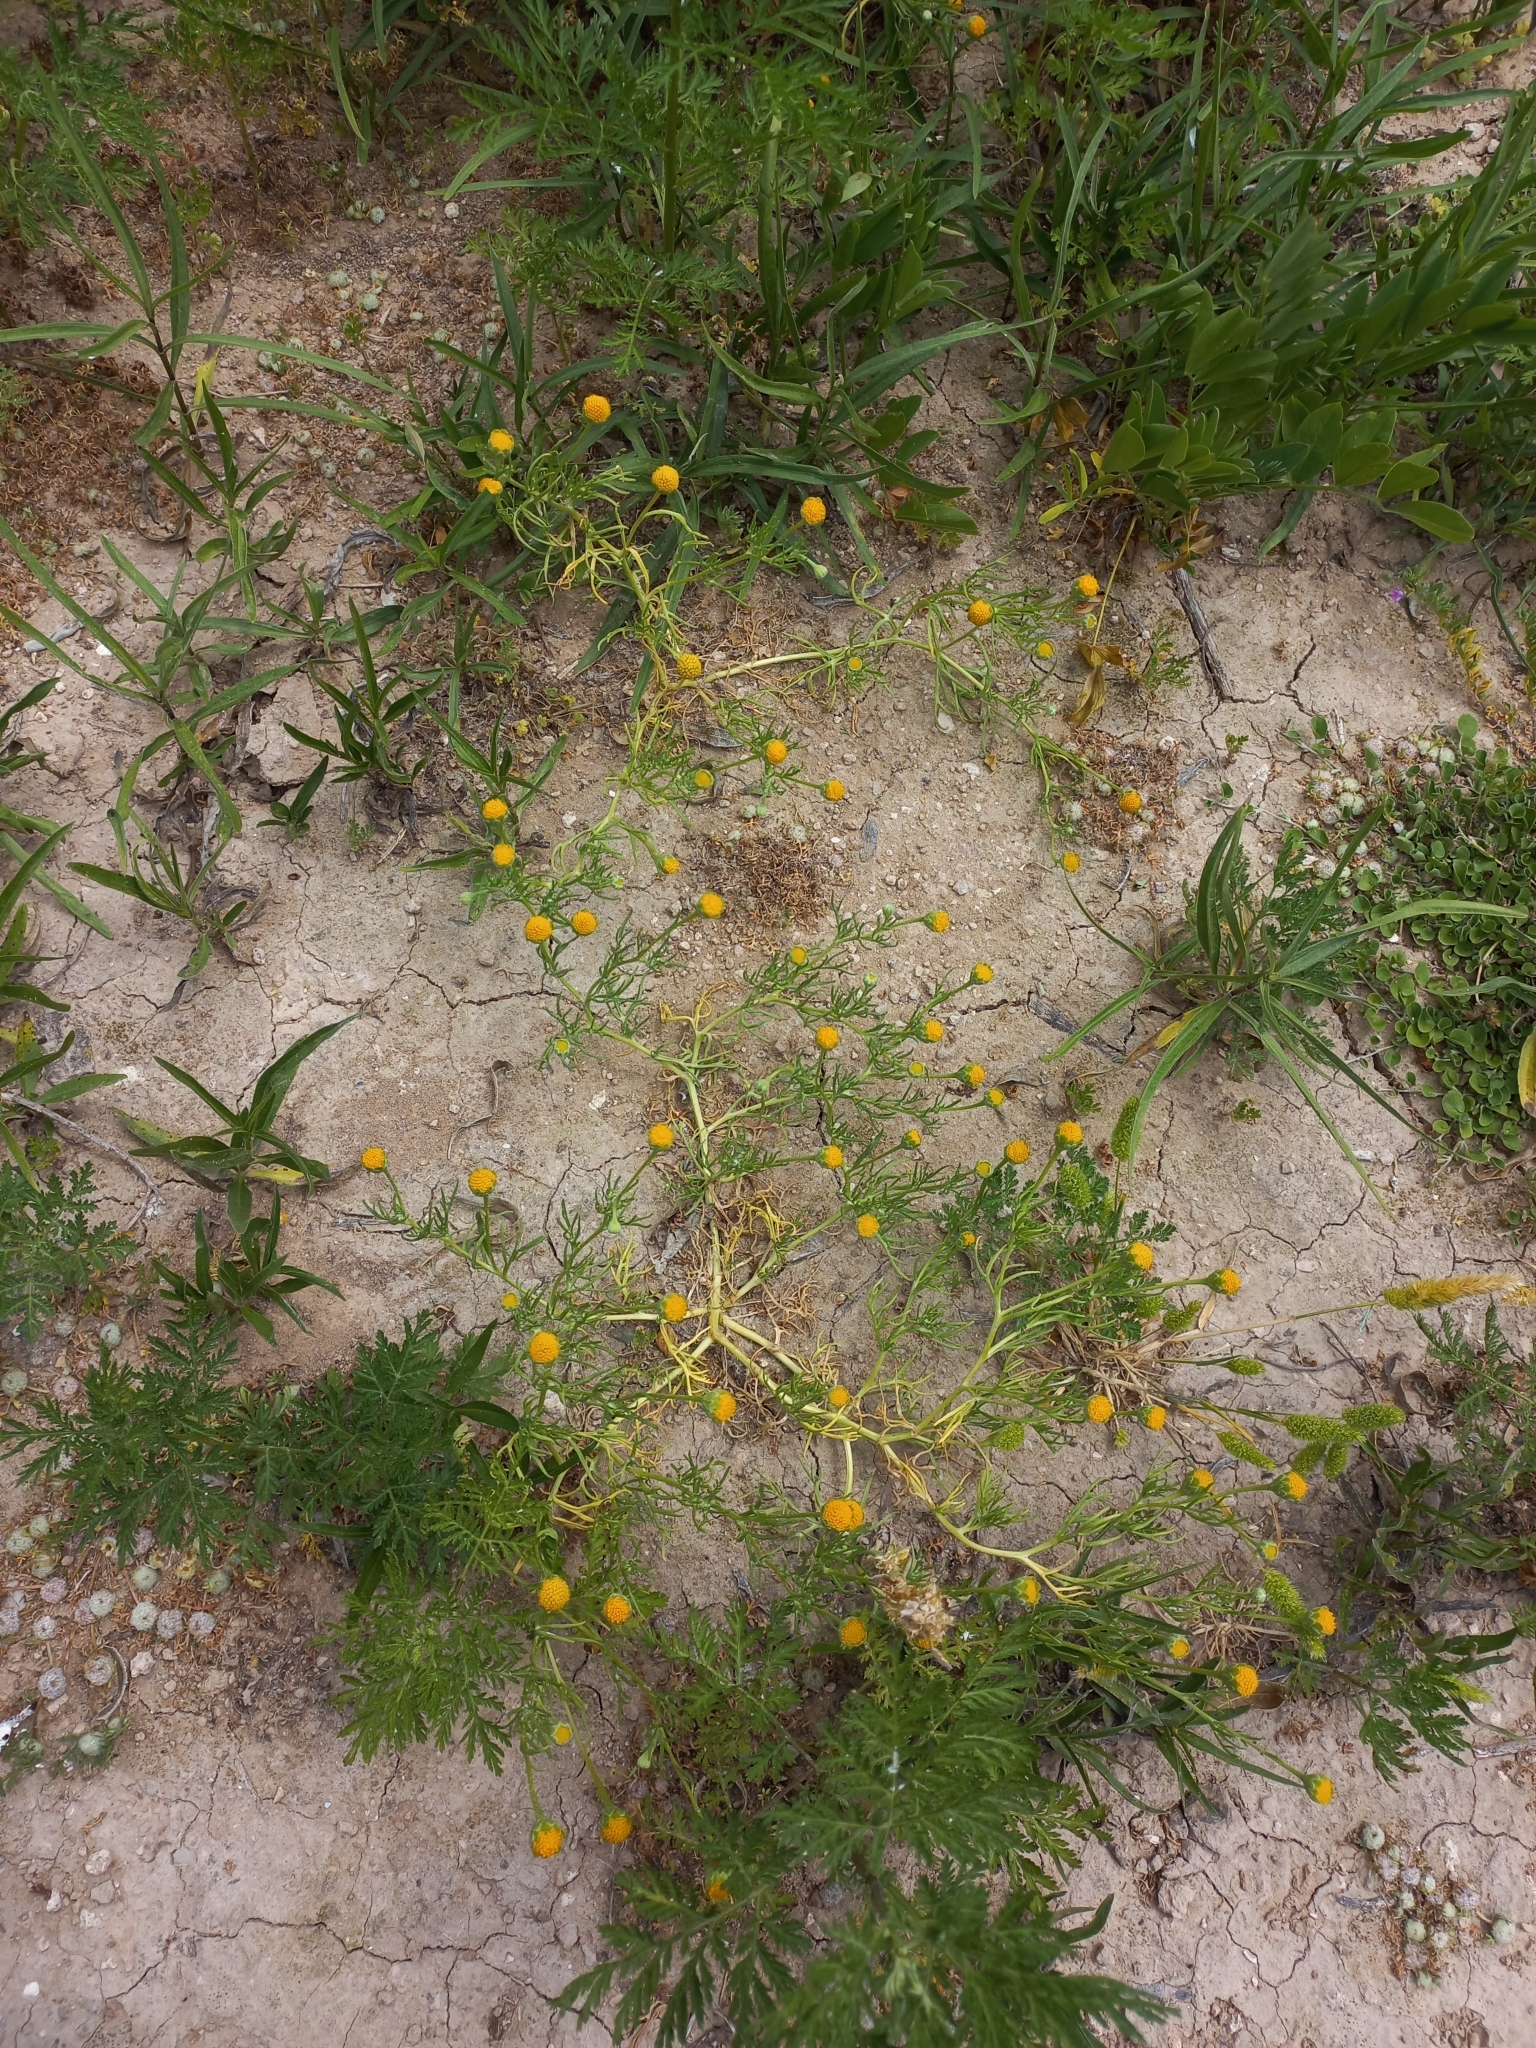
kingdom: Plantae
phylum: Tracheophyta
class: Magnoliopsida
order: Asterales
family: Asteraceae
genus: Hymenoxys
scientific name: Hymenoxys anthemoides
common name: South american rubberweed
